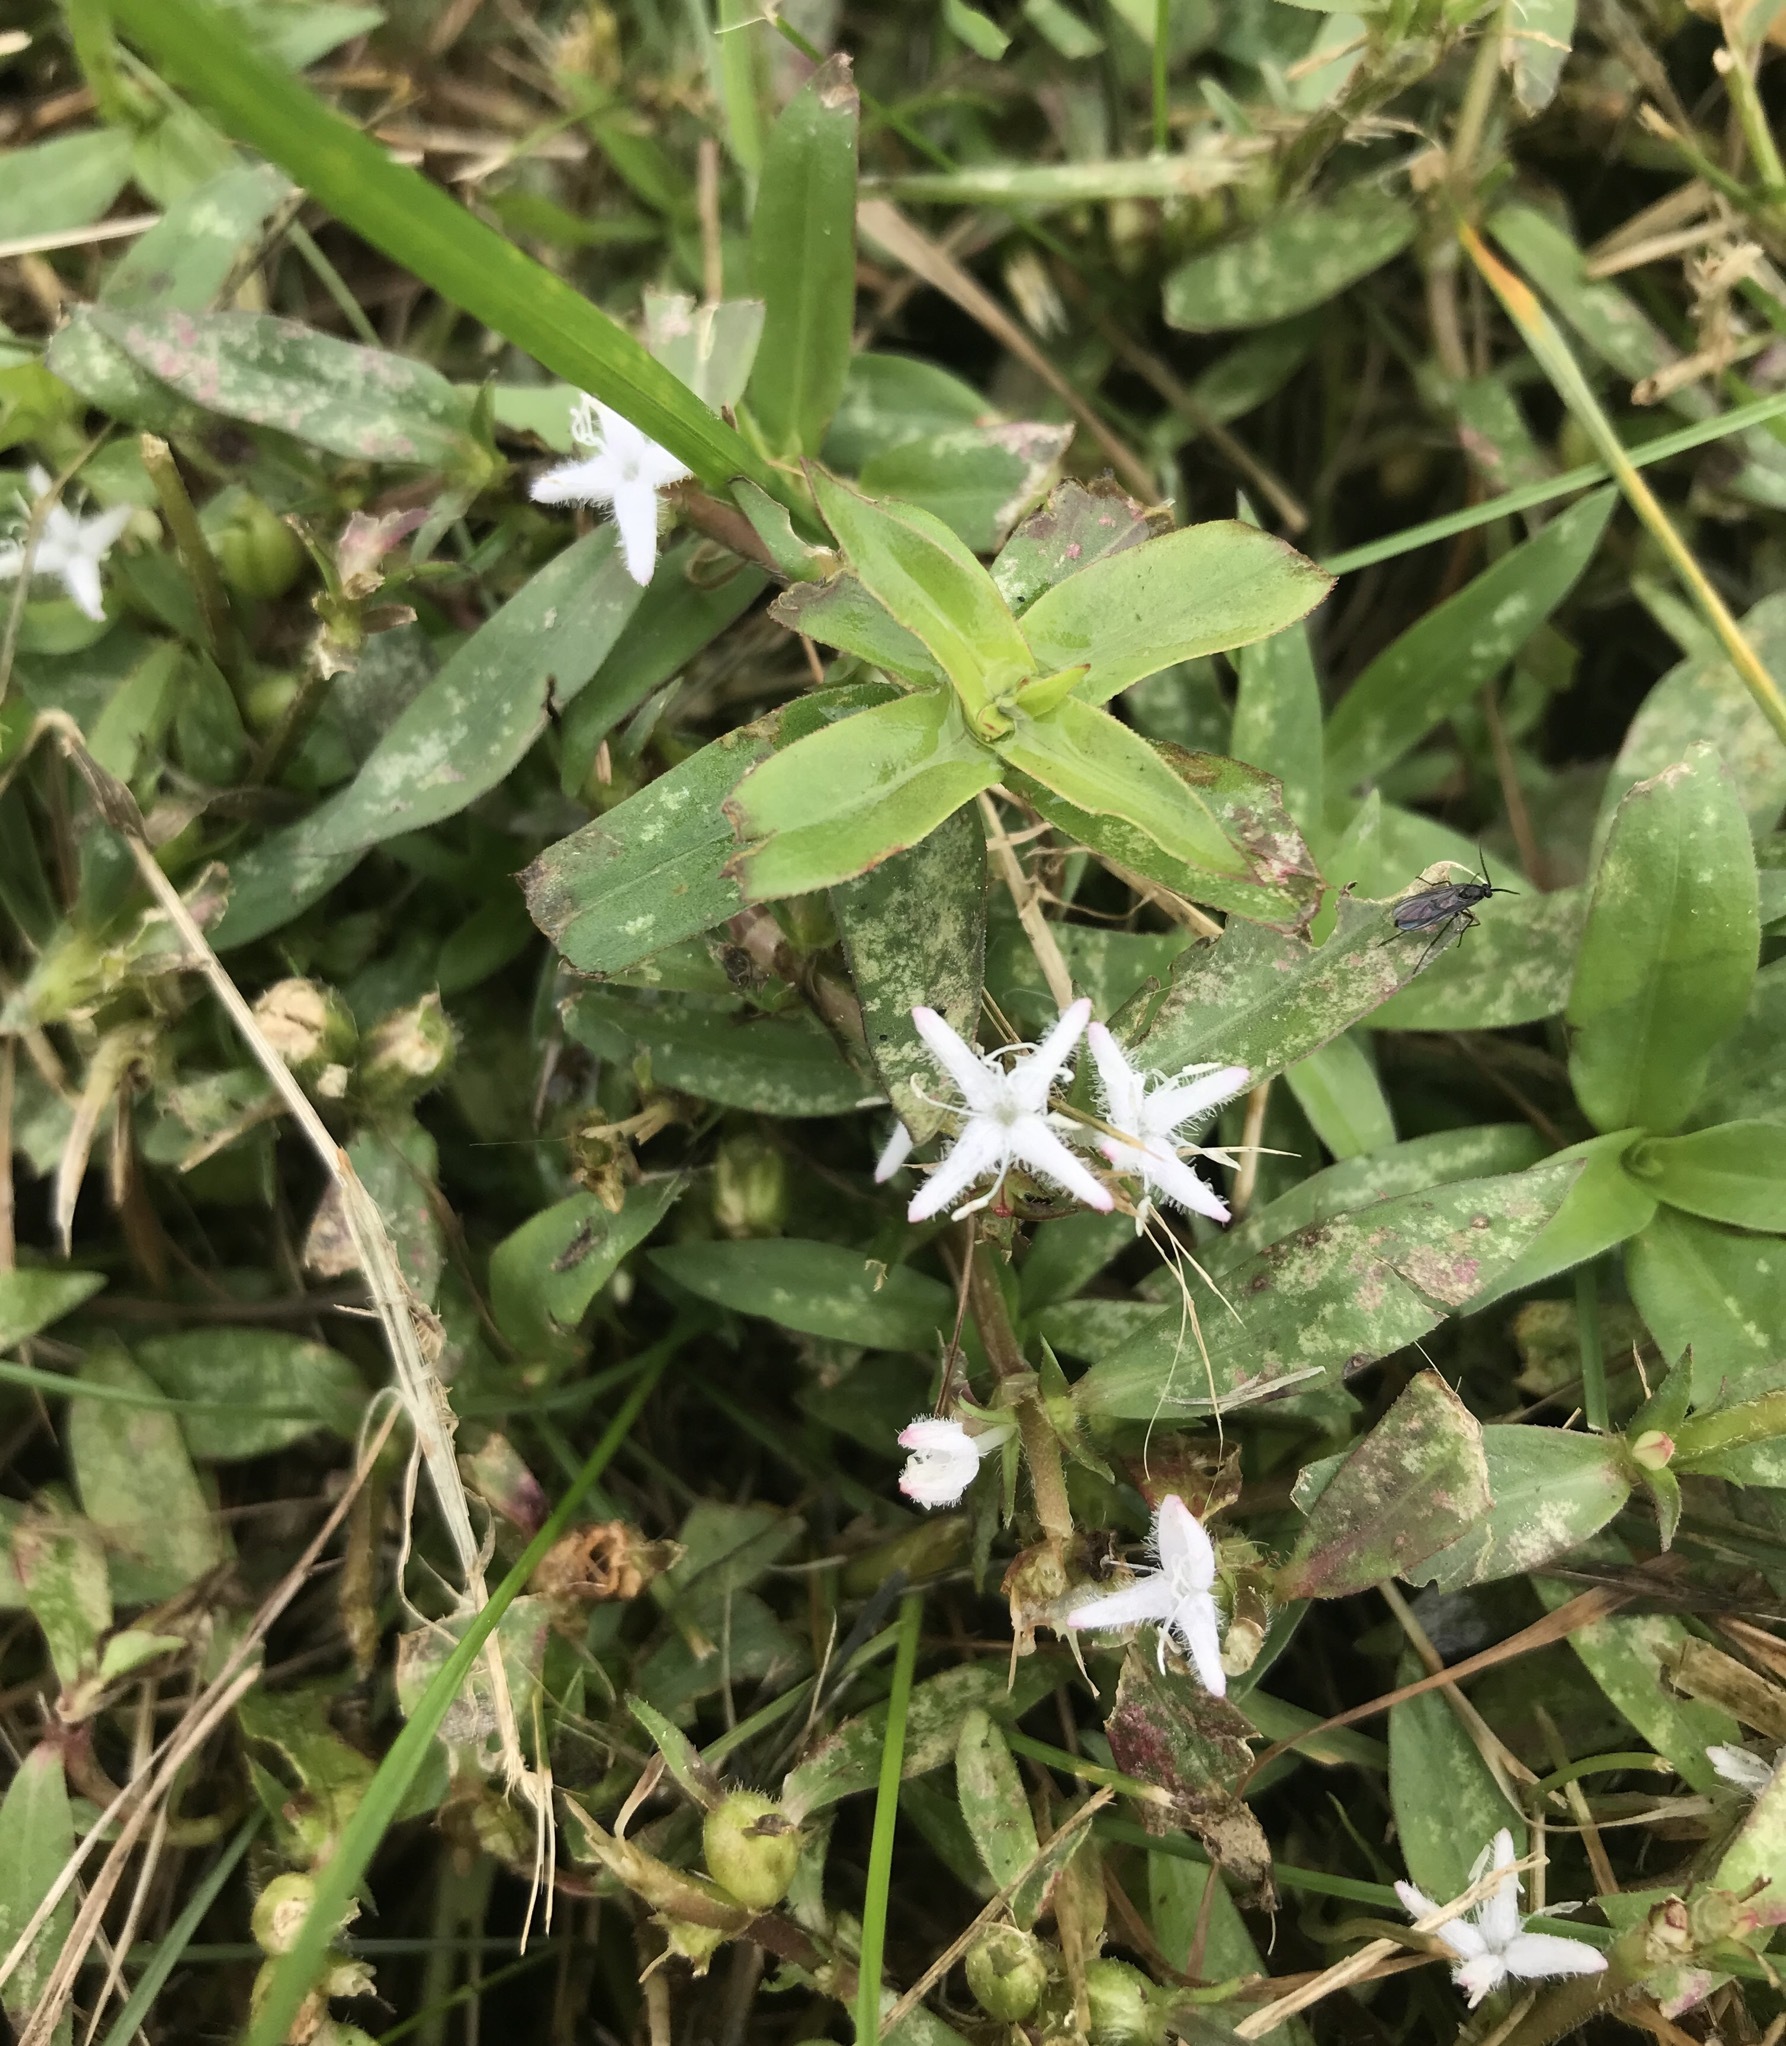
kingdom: Plantae
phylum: Tracheophyta
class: Magnoliopsida
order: Gentianales
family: Rubiaceae
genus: Diodia
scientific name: Diodia virginiana
